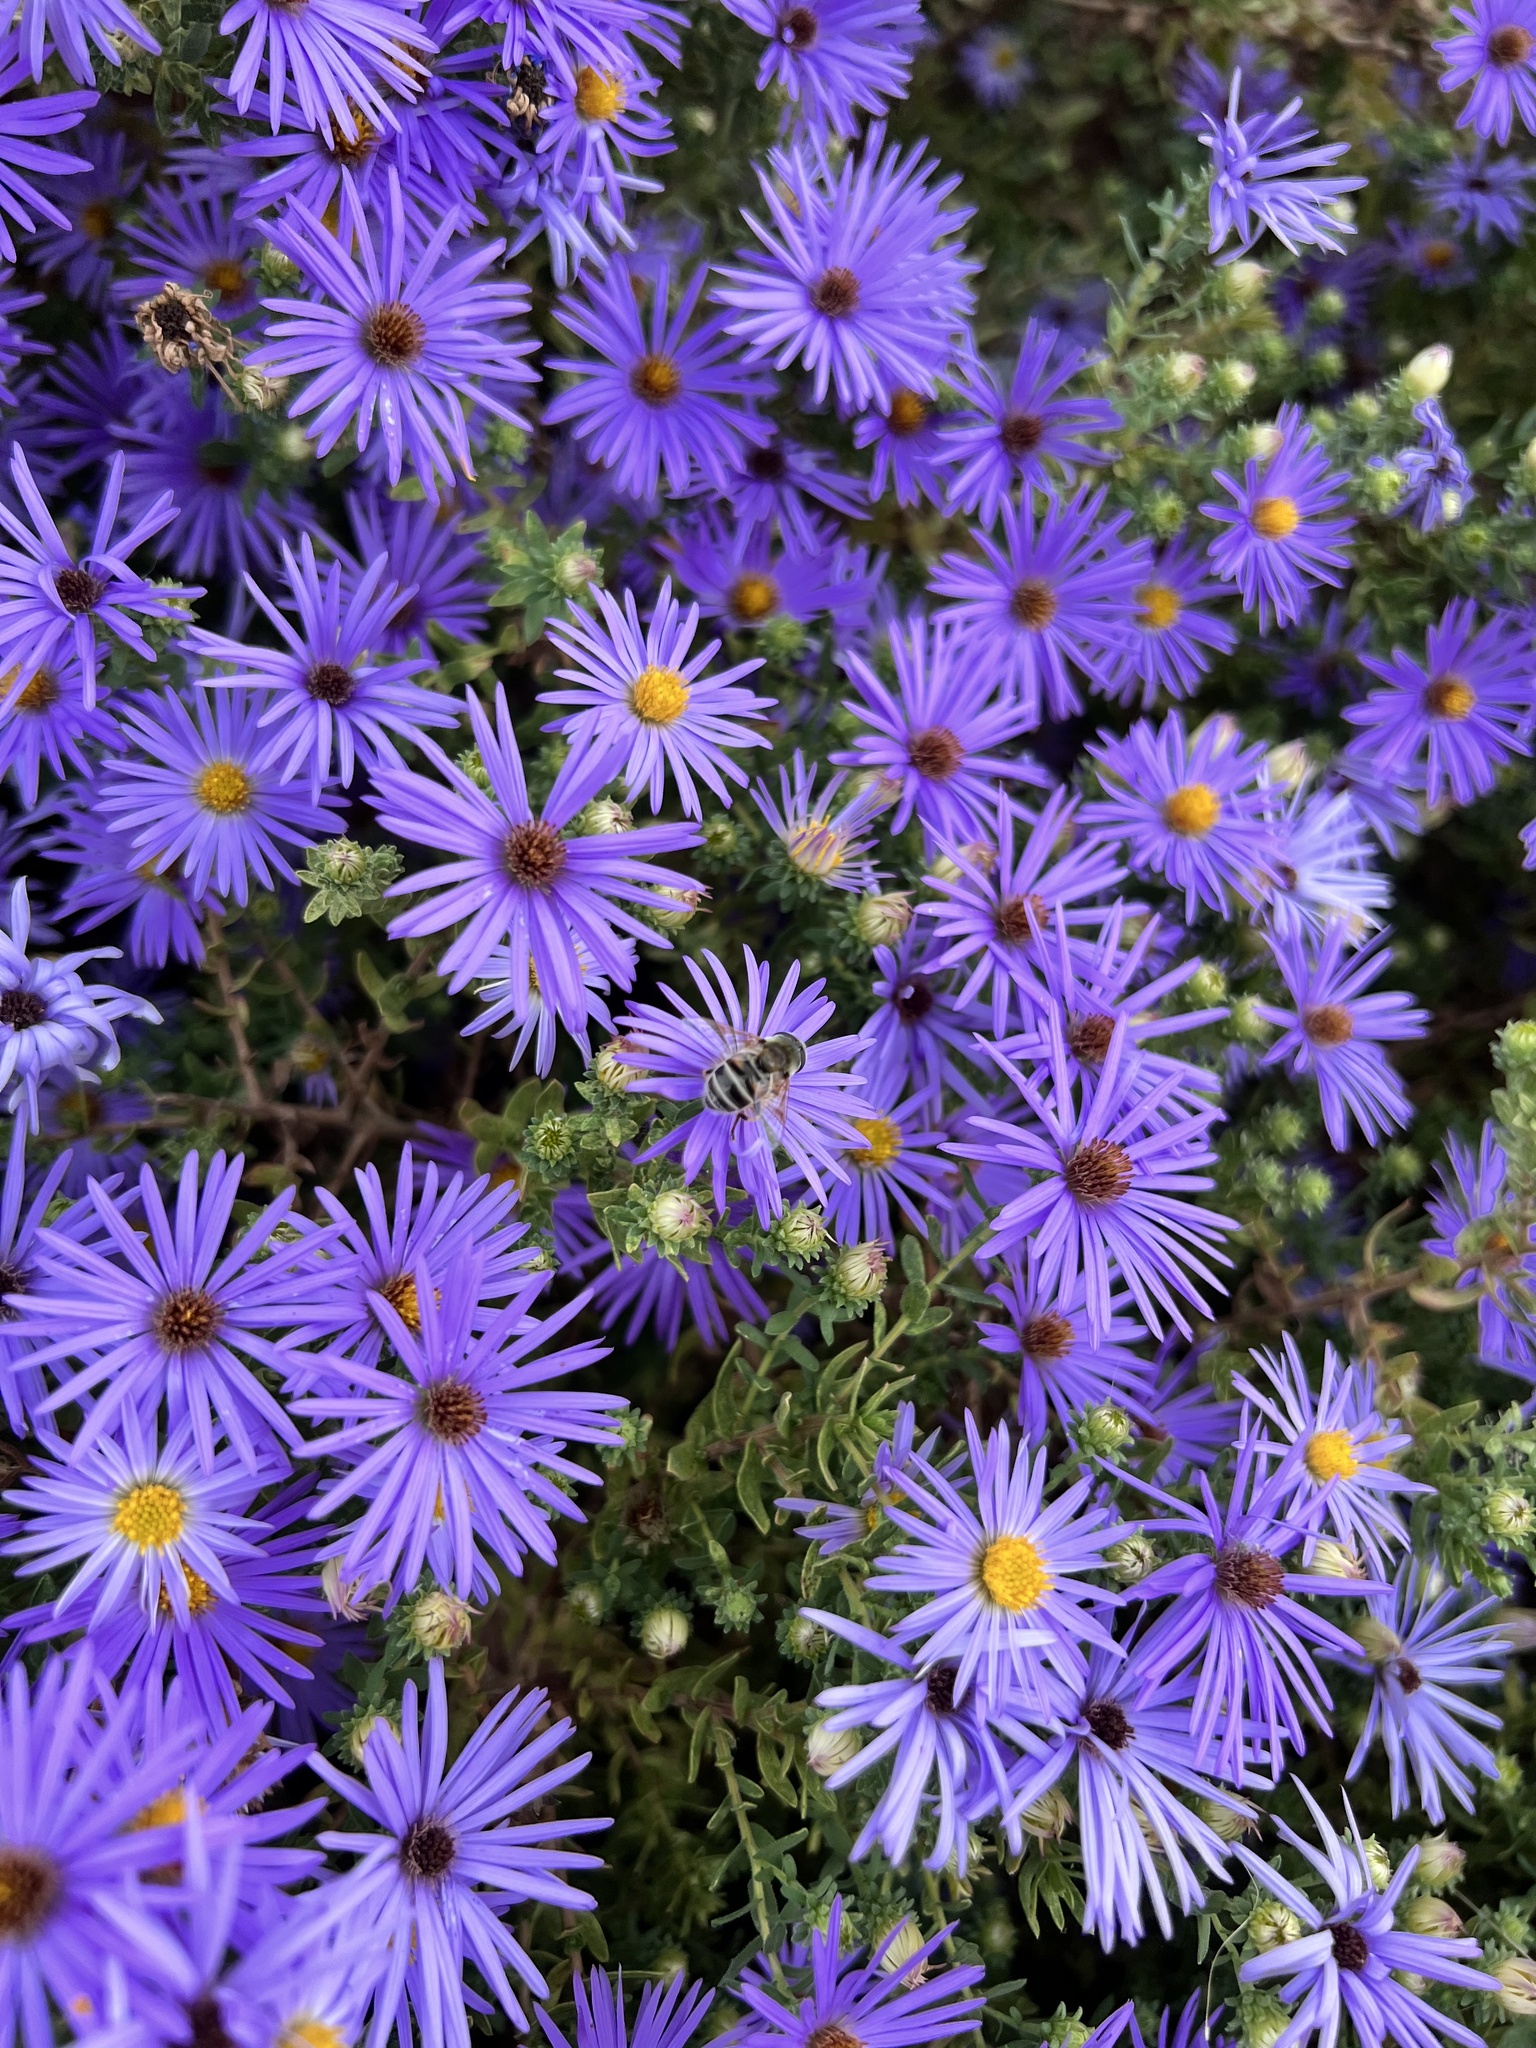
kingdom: Animalia
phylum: Arthropoda
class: Insecta
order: Diptera
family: Syrphidae
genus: Eristalis
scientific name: Eristalis stipator
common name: Yellow-shouldered drone fly
